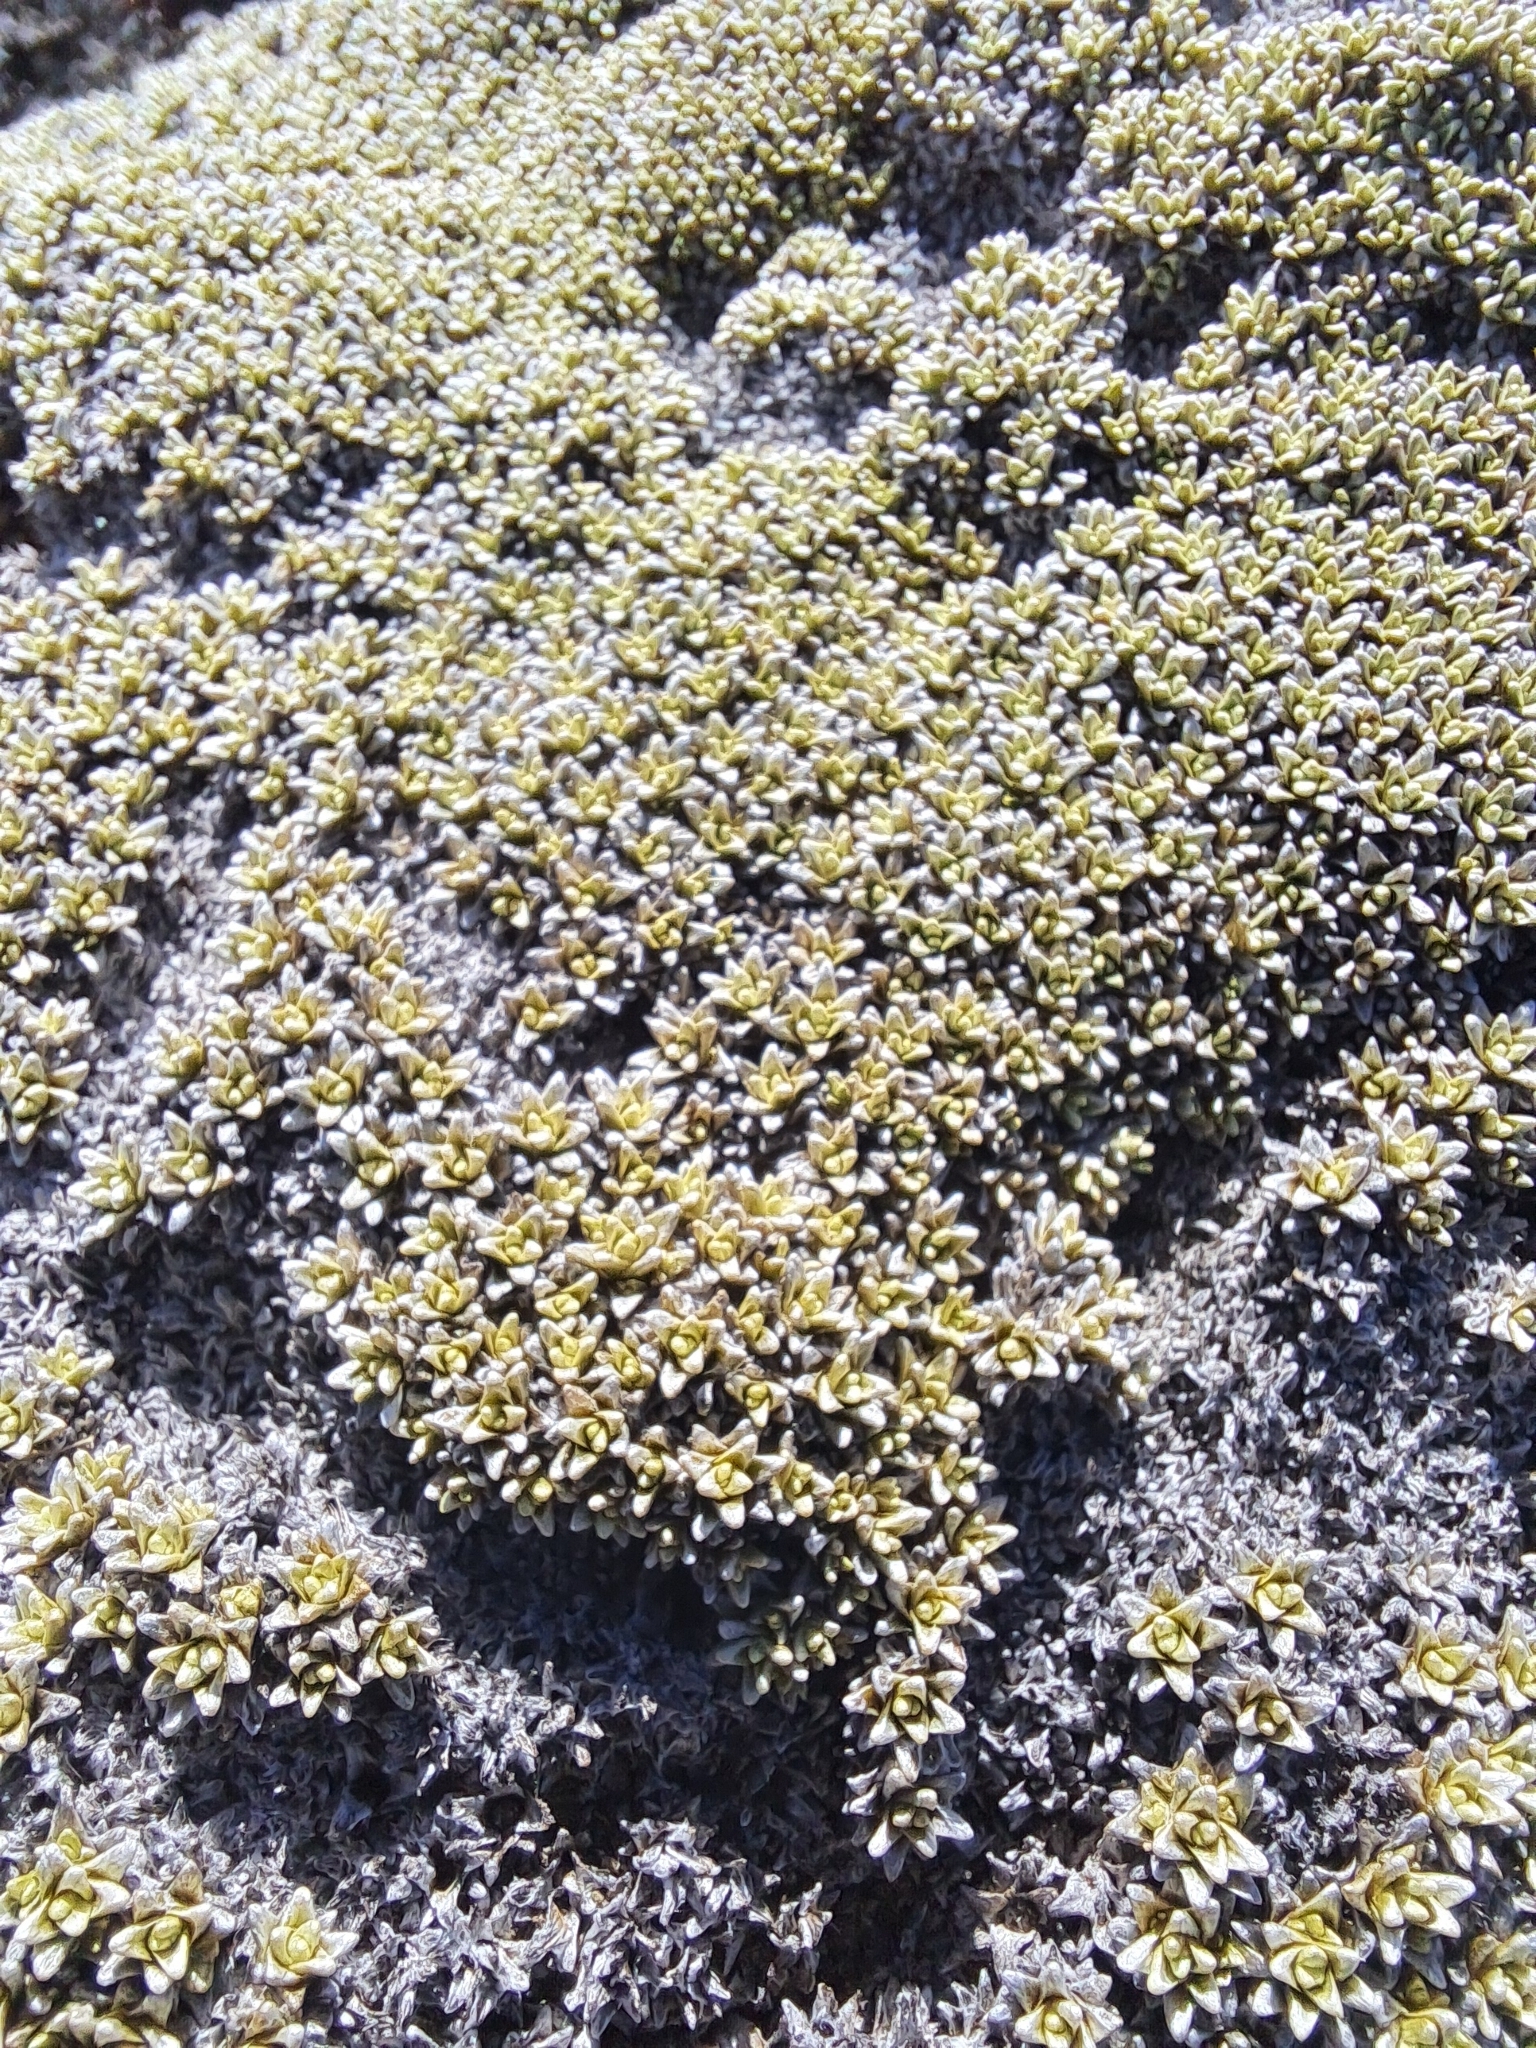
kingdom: Plantae
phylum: Tracheophyta
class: Magnoliopsida
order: Asterales
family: Asteraceae
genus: Raoulia
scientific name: Raoulia hectorii
